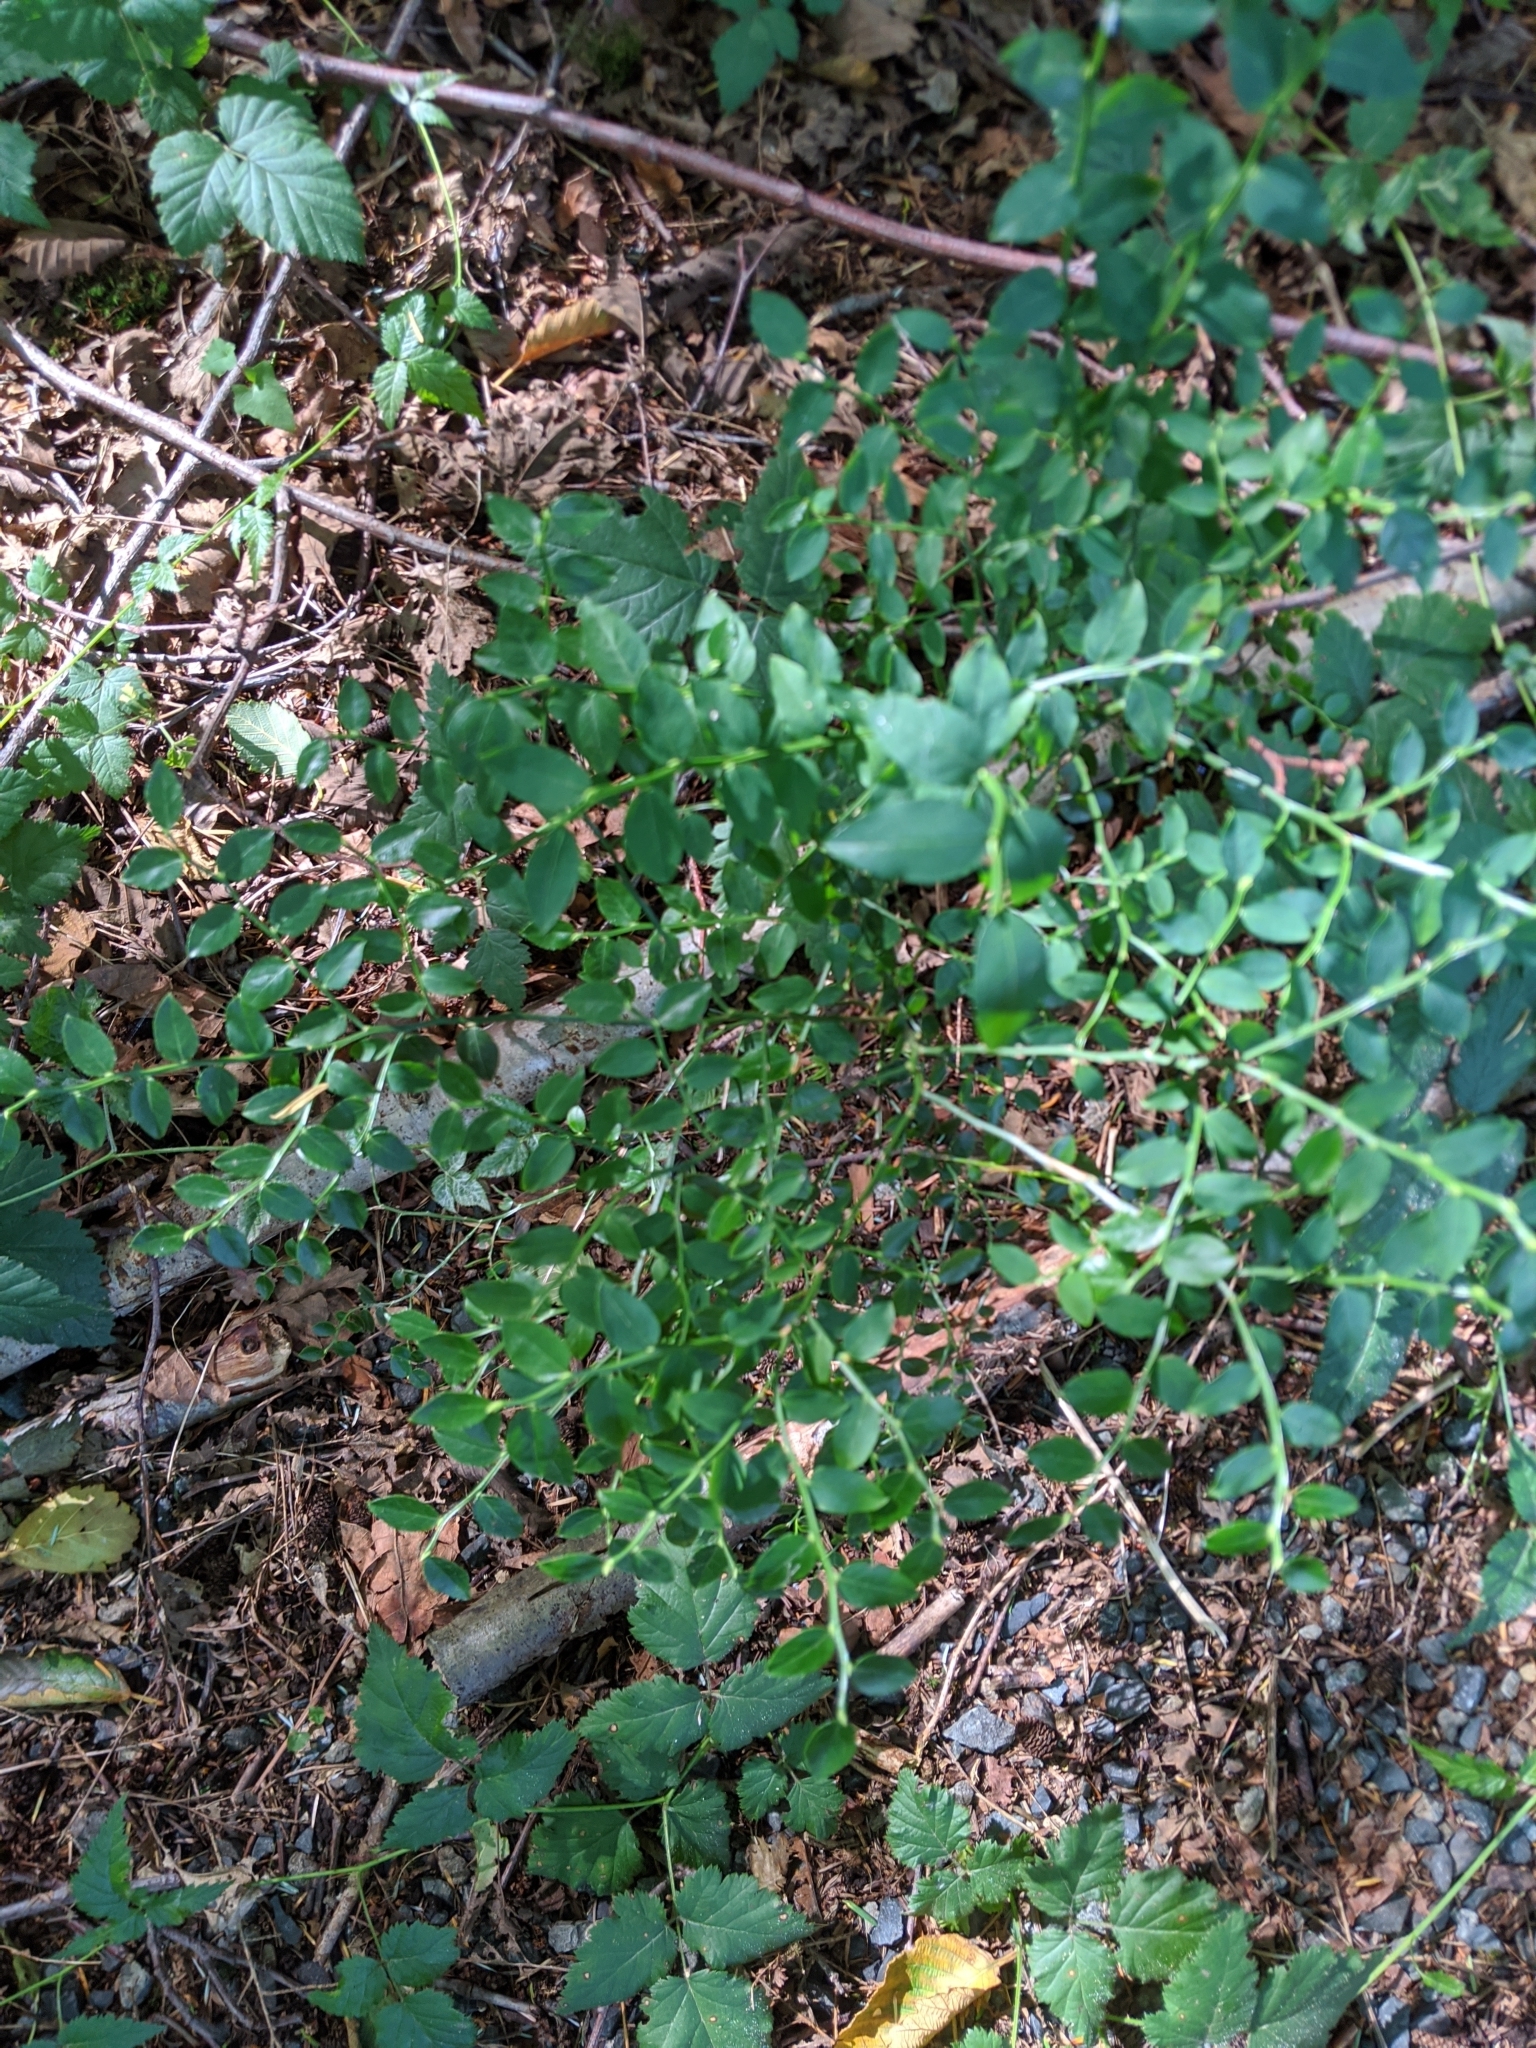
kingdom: Plantae
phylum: Tracheophyta
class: Magnoliopsida
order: Ericales
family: Ericaceae
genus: Vaccinium
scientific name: Vaccinium parvifolium
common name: Red-huckleberry
